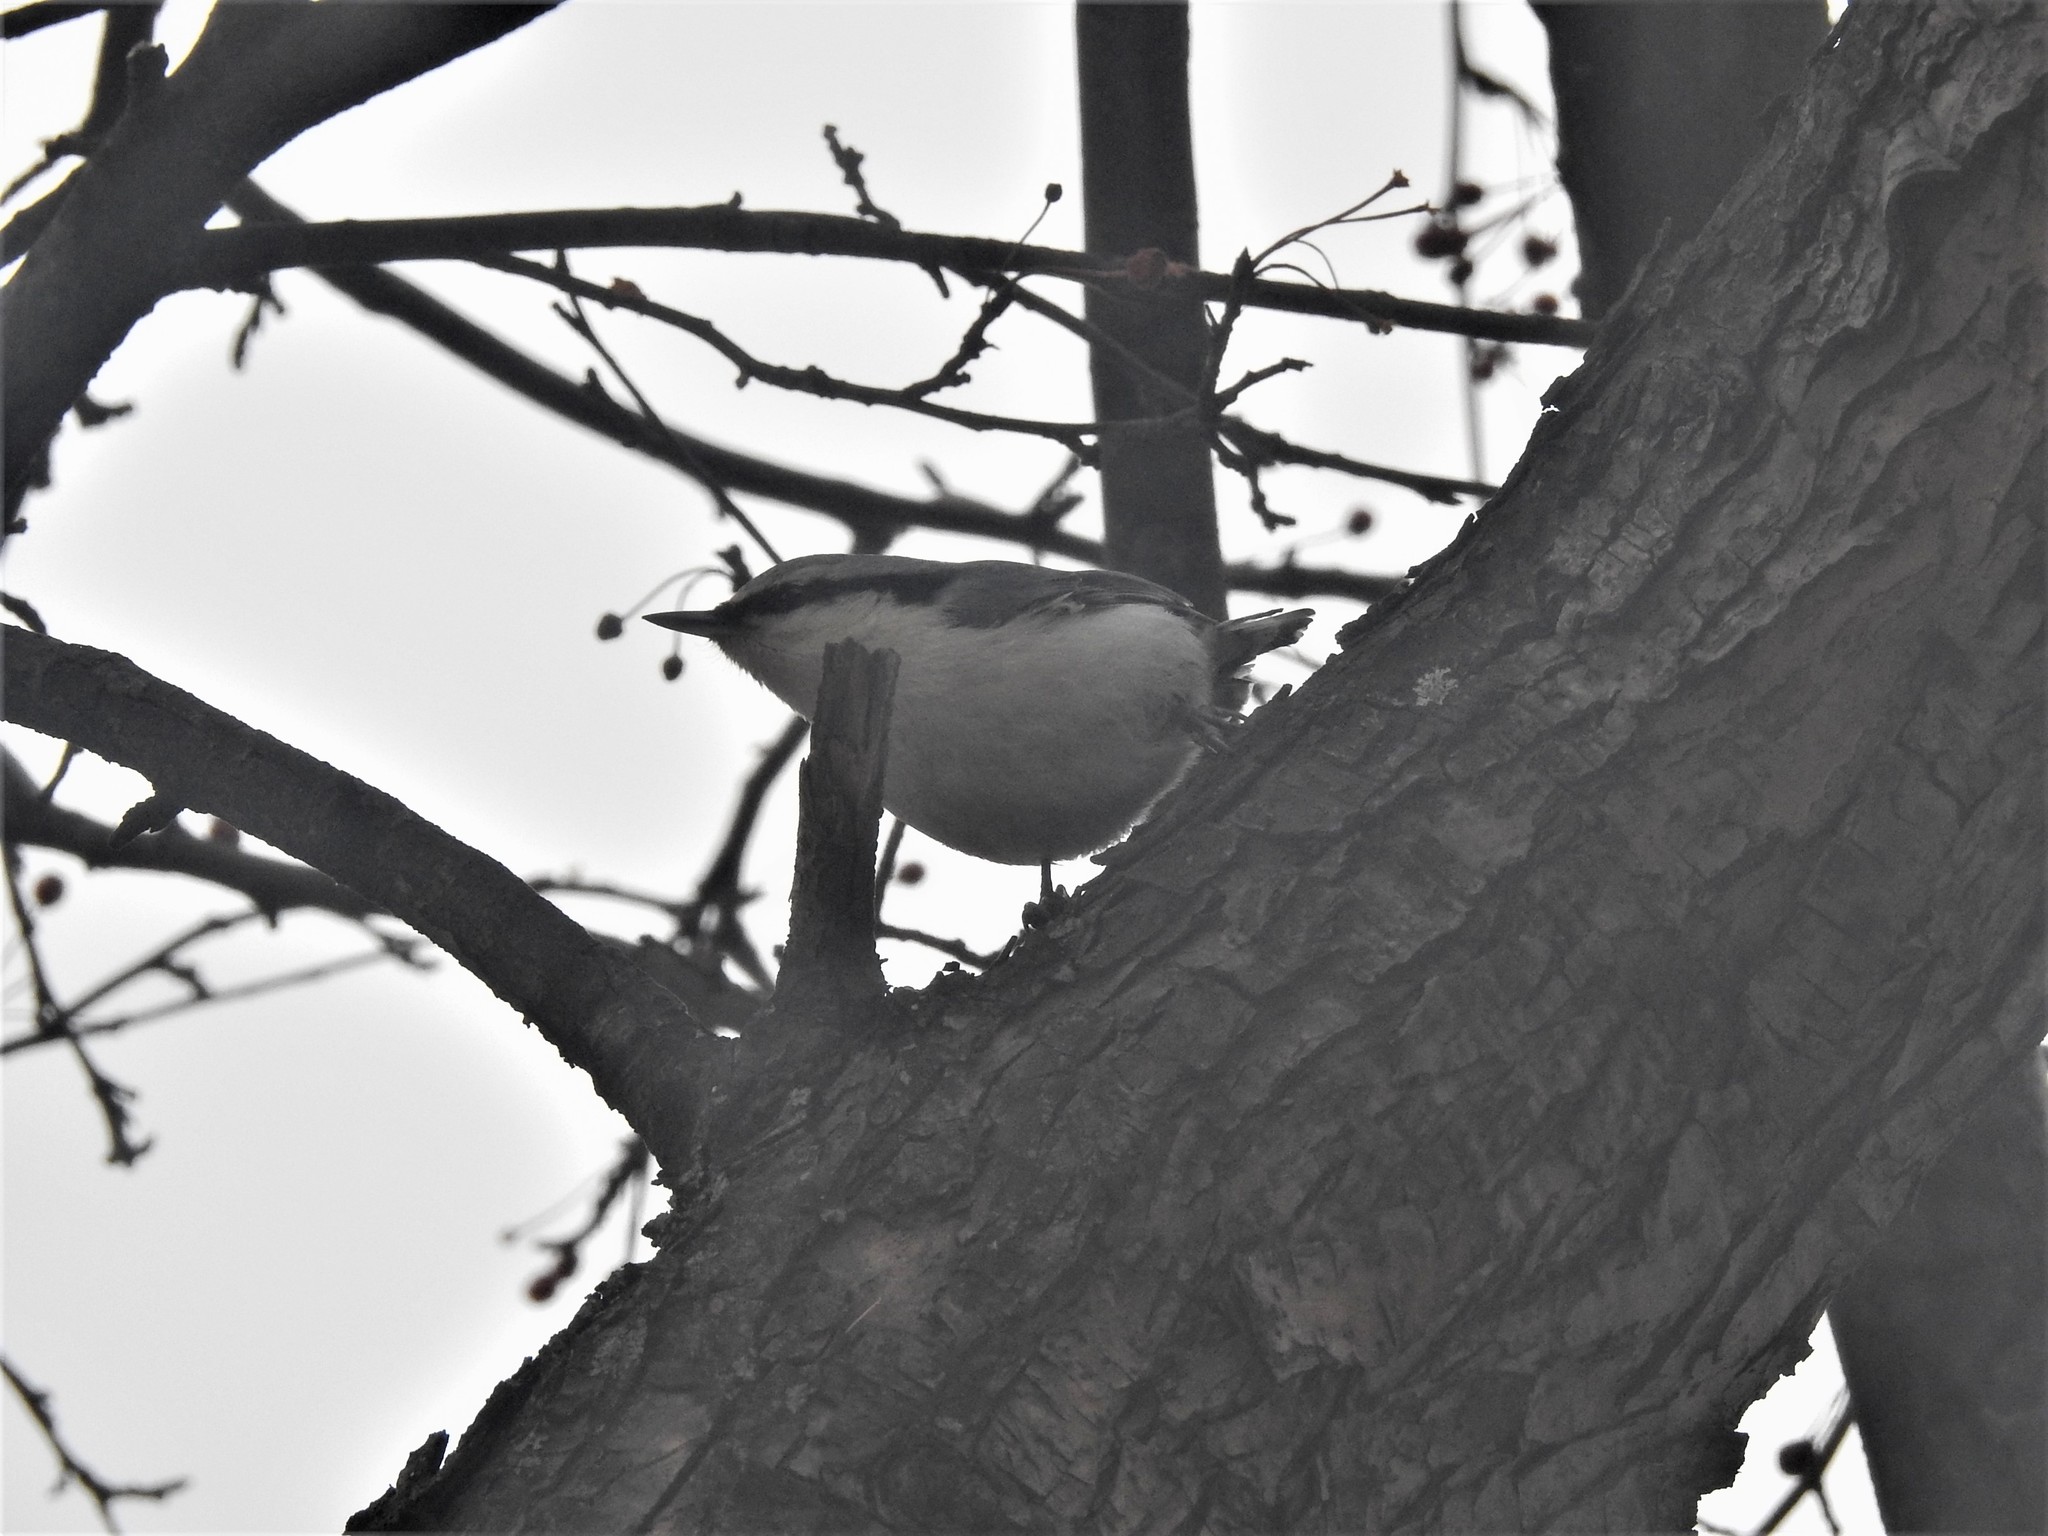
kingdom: Animalia
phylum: Chordata
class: Aves
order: Passeriformes
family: Sittidae
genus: Sitta
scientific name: Sitta europaea
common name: Eurasian nuthatch
